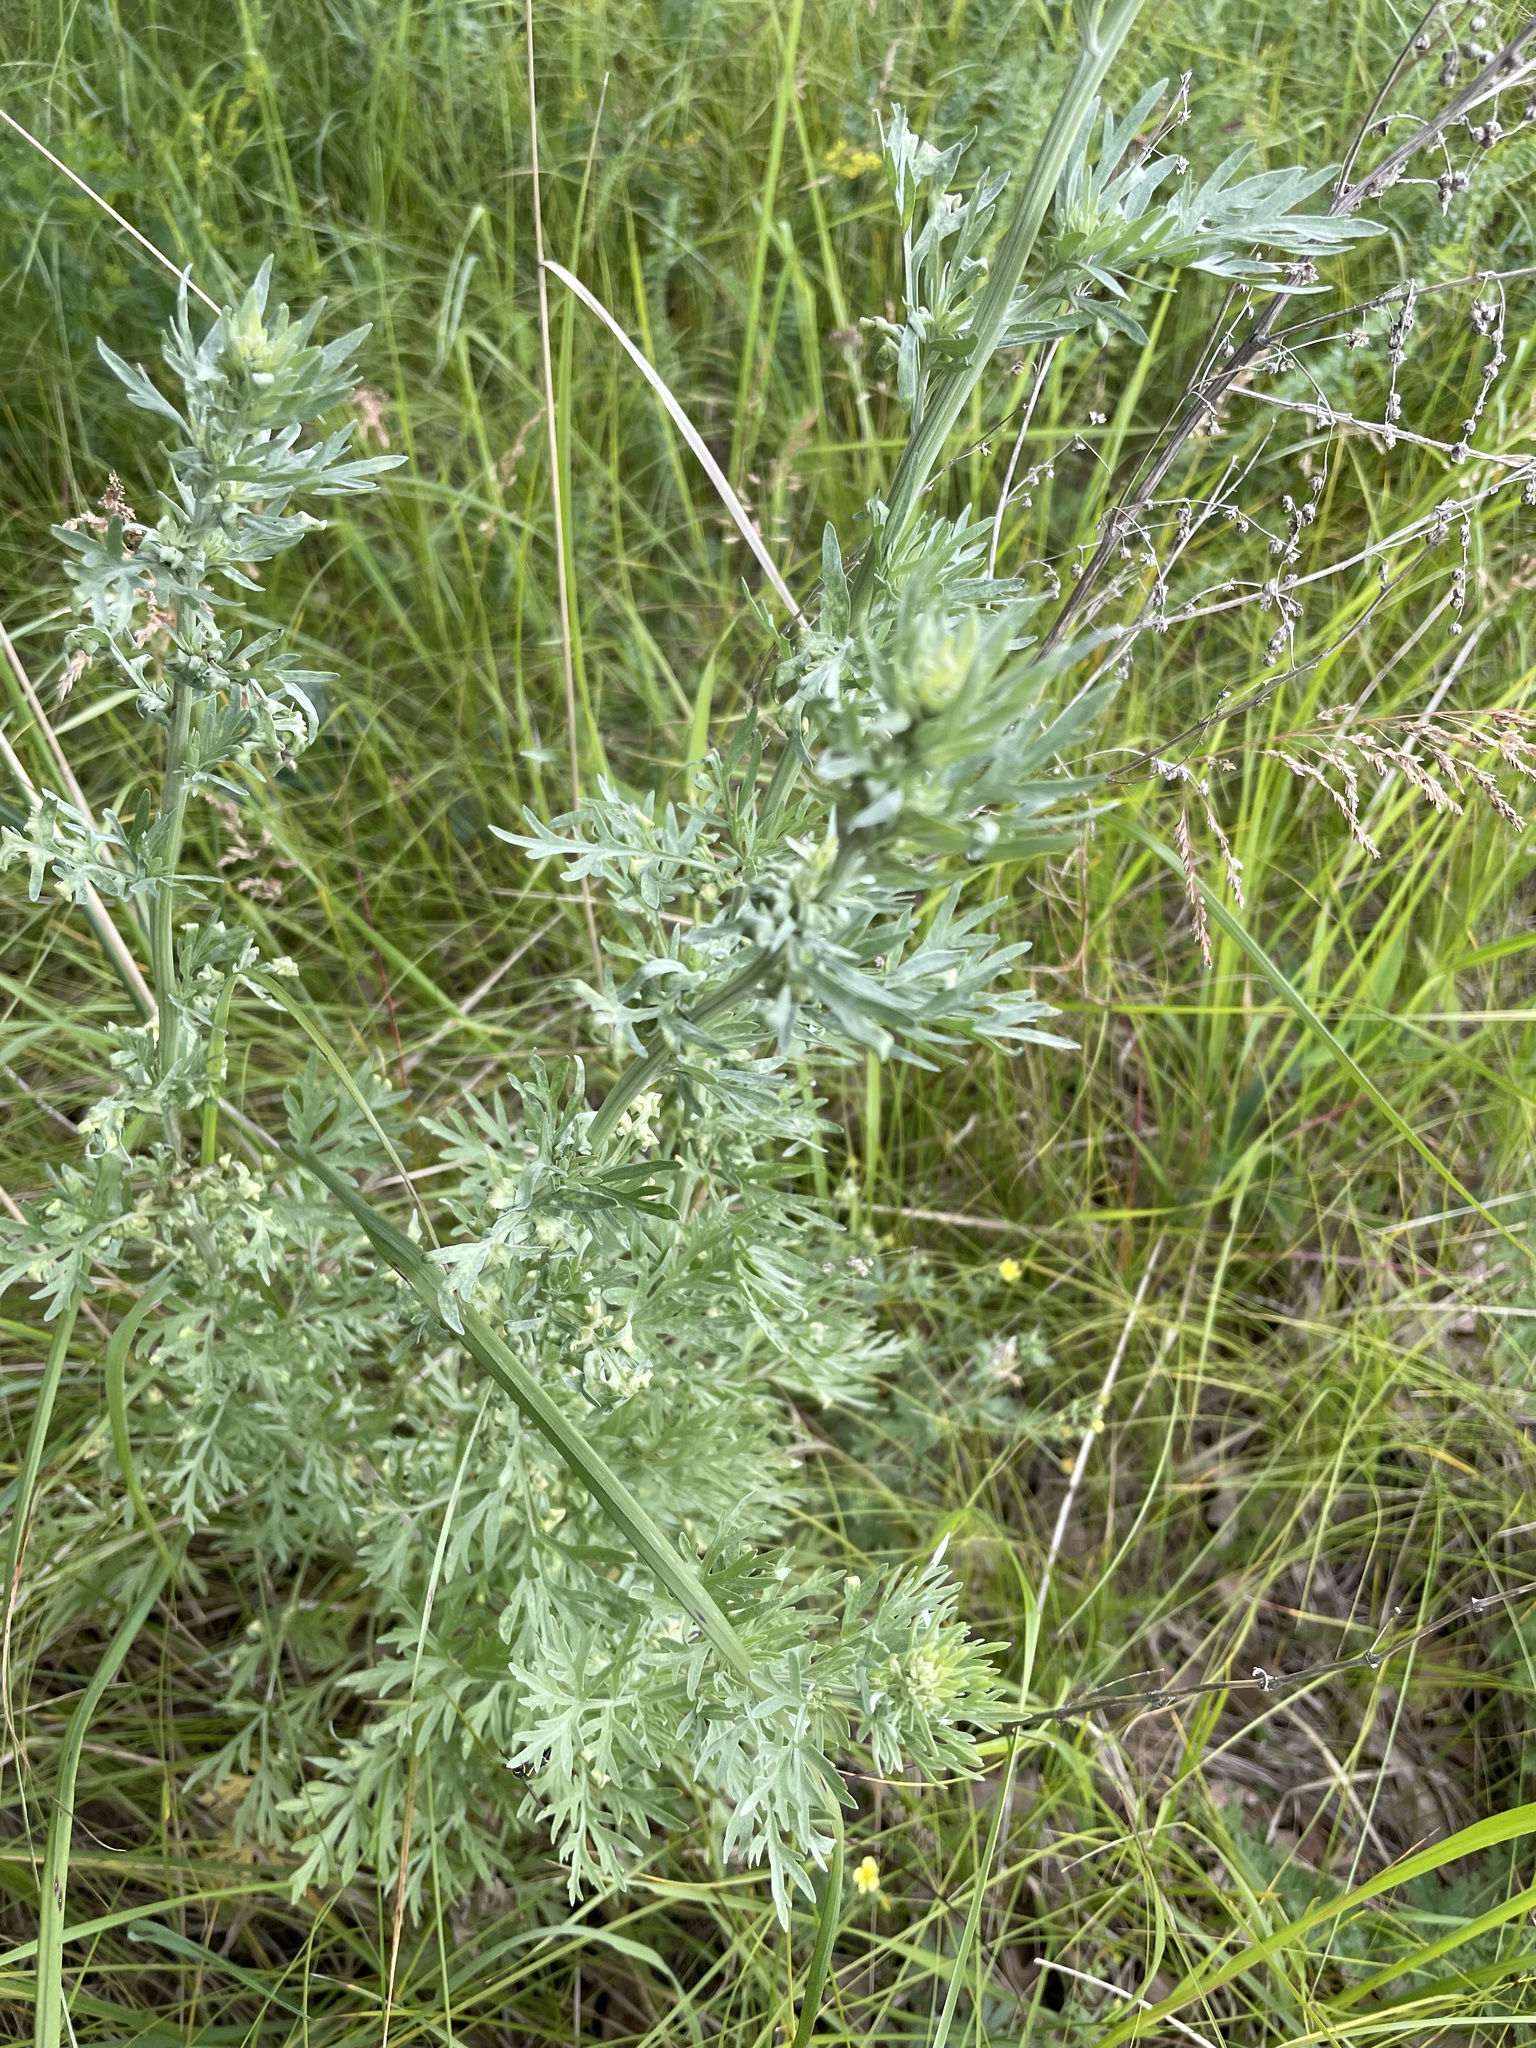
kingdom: Plantae
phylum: Tracheophyta
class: Magnoliopsida
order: Asterales
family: Asteraceae
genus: Artemisia
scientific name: Artemisia absinthium
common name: Wormwood
